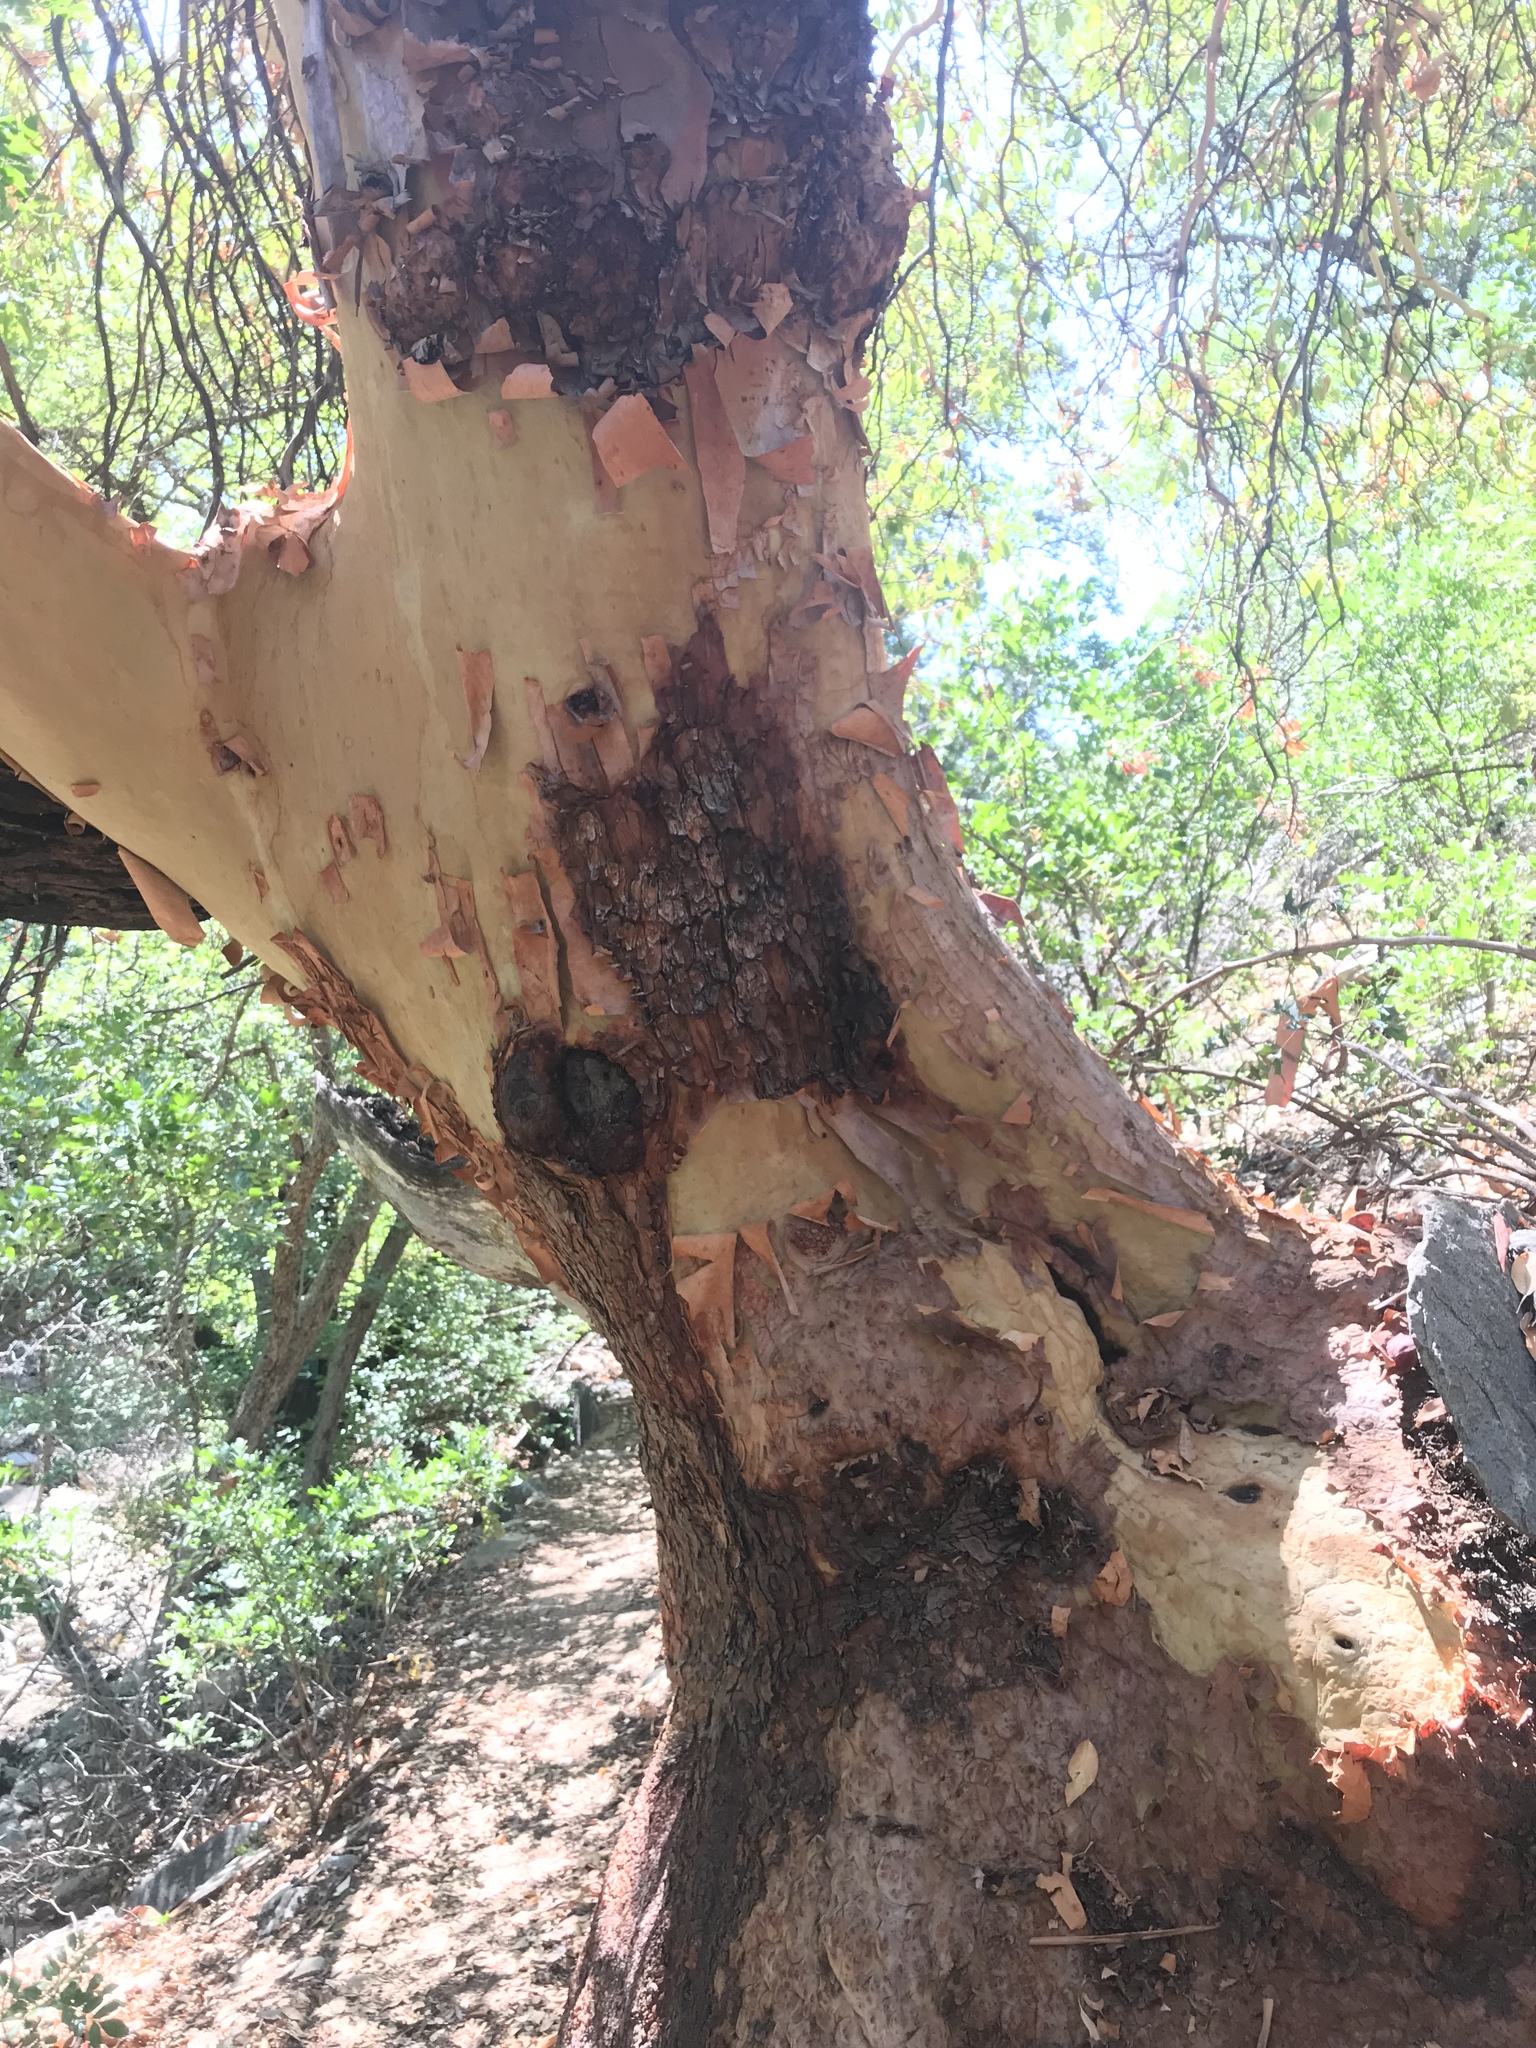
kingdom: Plantae
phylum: Tracheophyta
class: Magnoliopsida
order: Ericales
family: Ericaceae
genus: Arbutus
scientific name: Arbutus xalapensis
